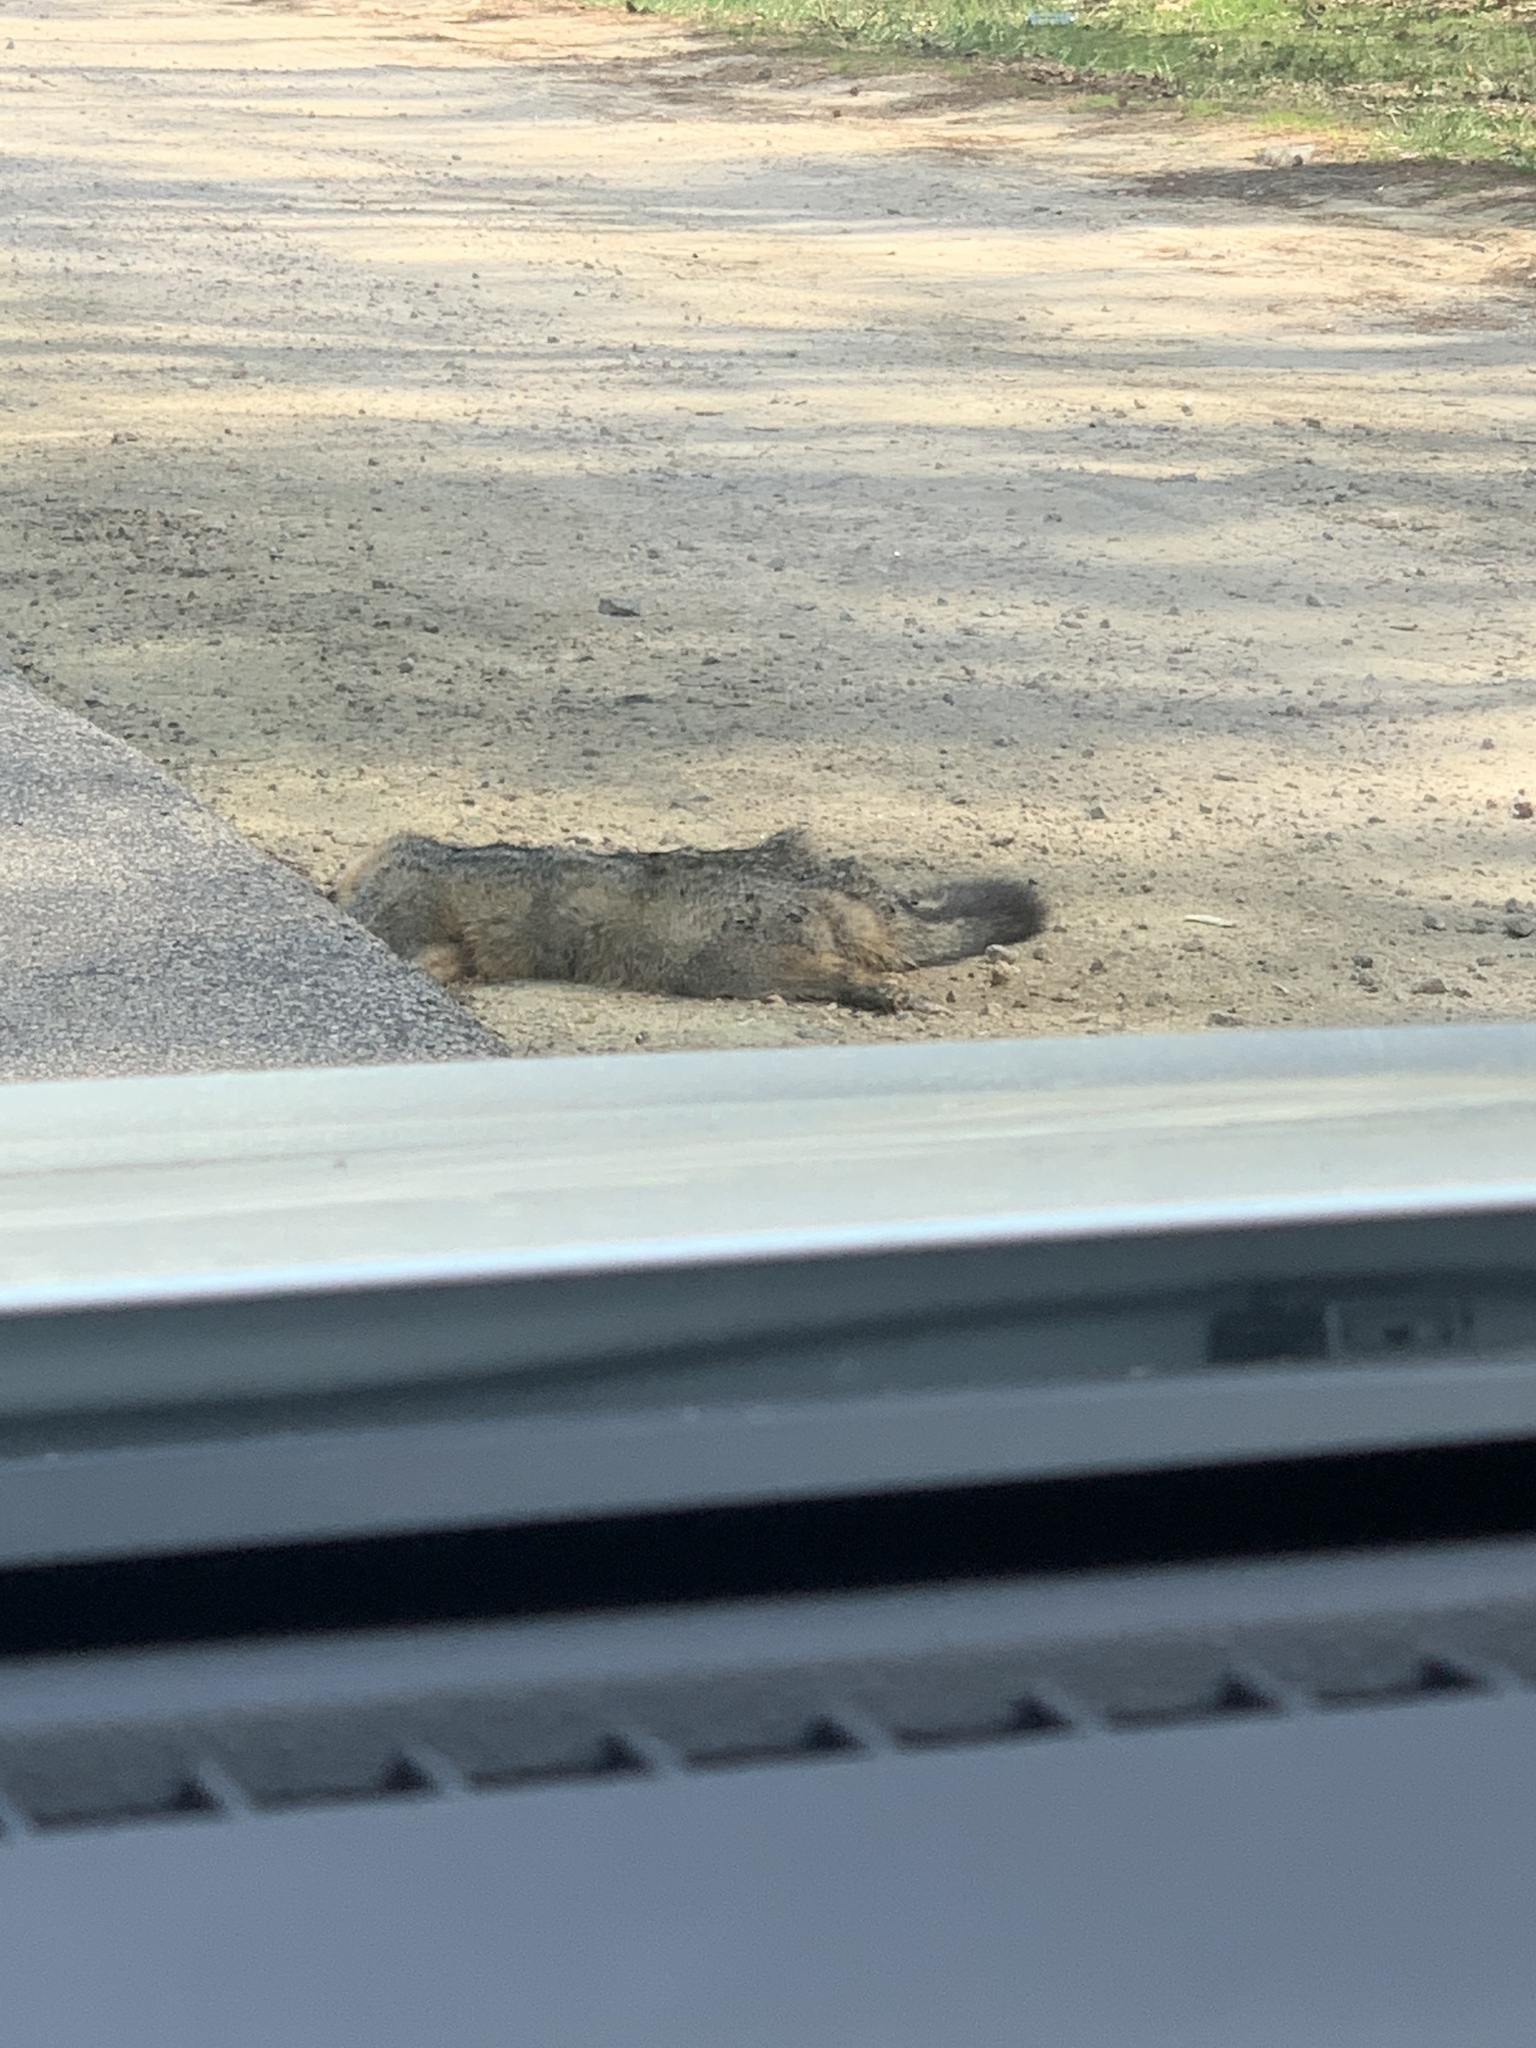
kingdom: Animalia
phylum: Chordata
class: Mammalia
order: Carnivora
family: Canidae
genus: Urocyon
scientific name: Urocyon cinereoargenteus
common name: Gray fox
